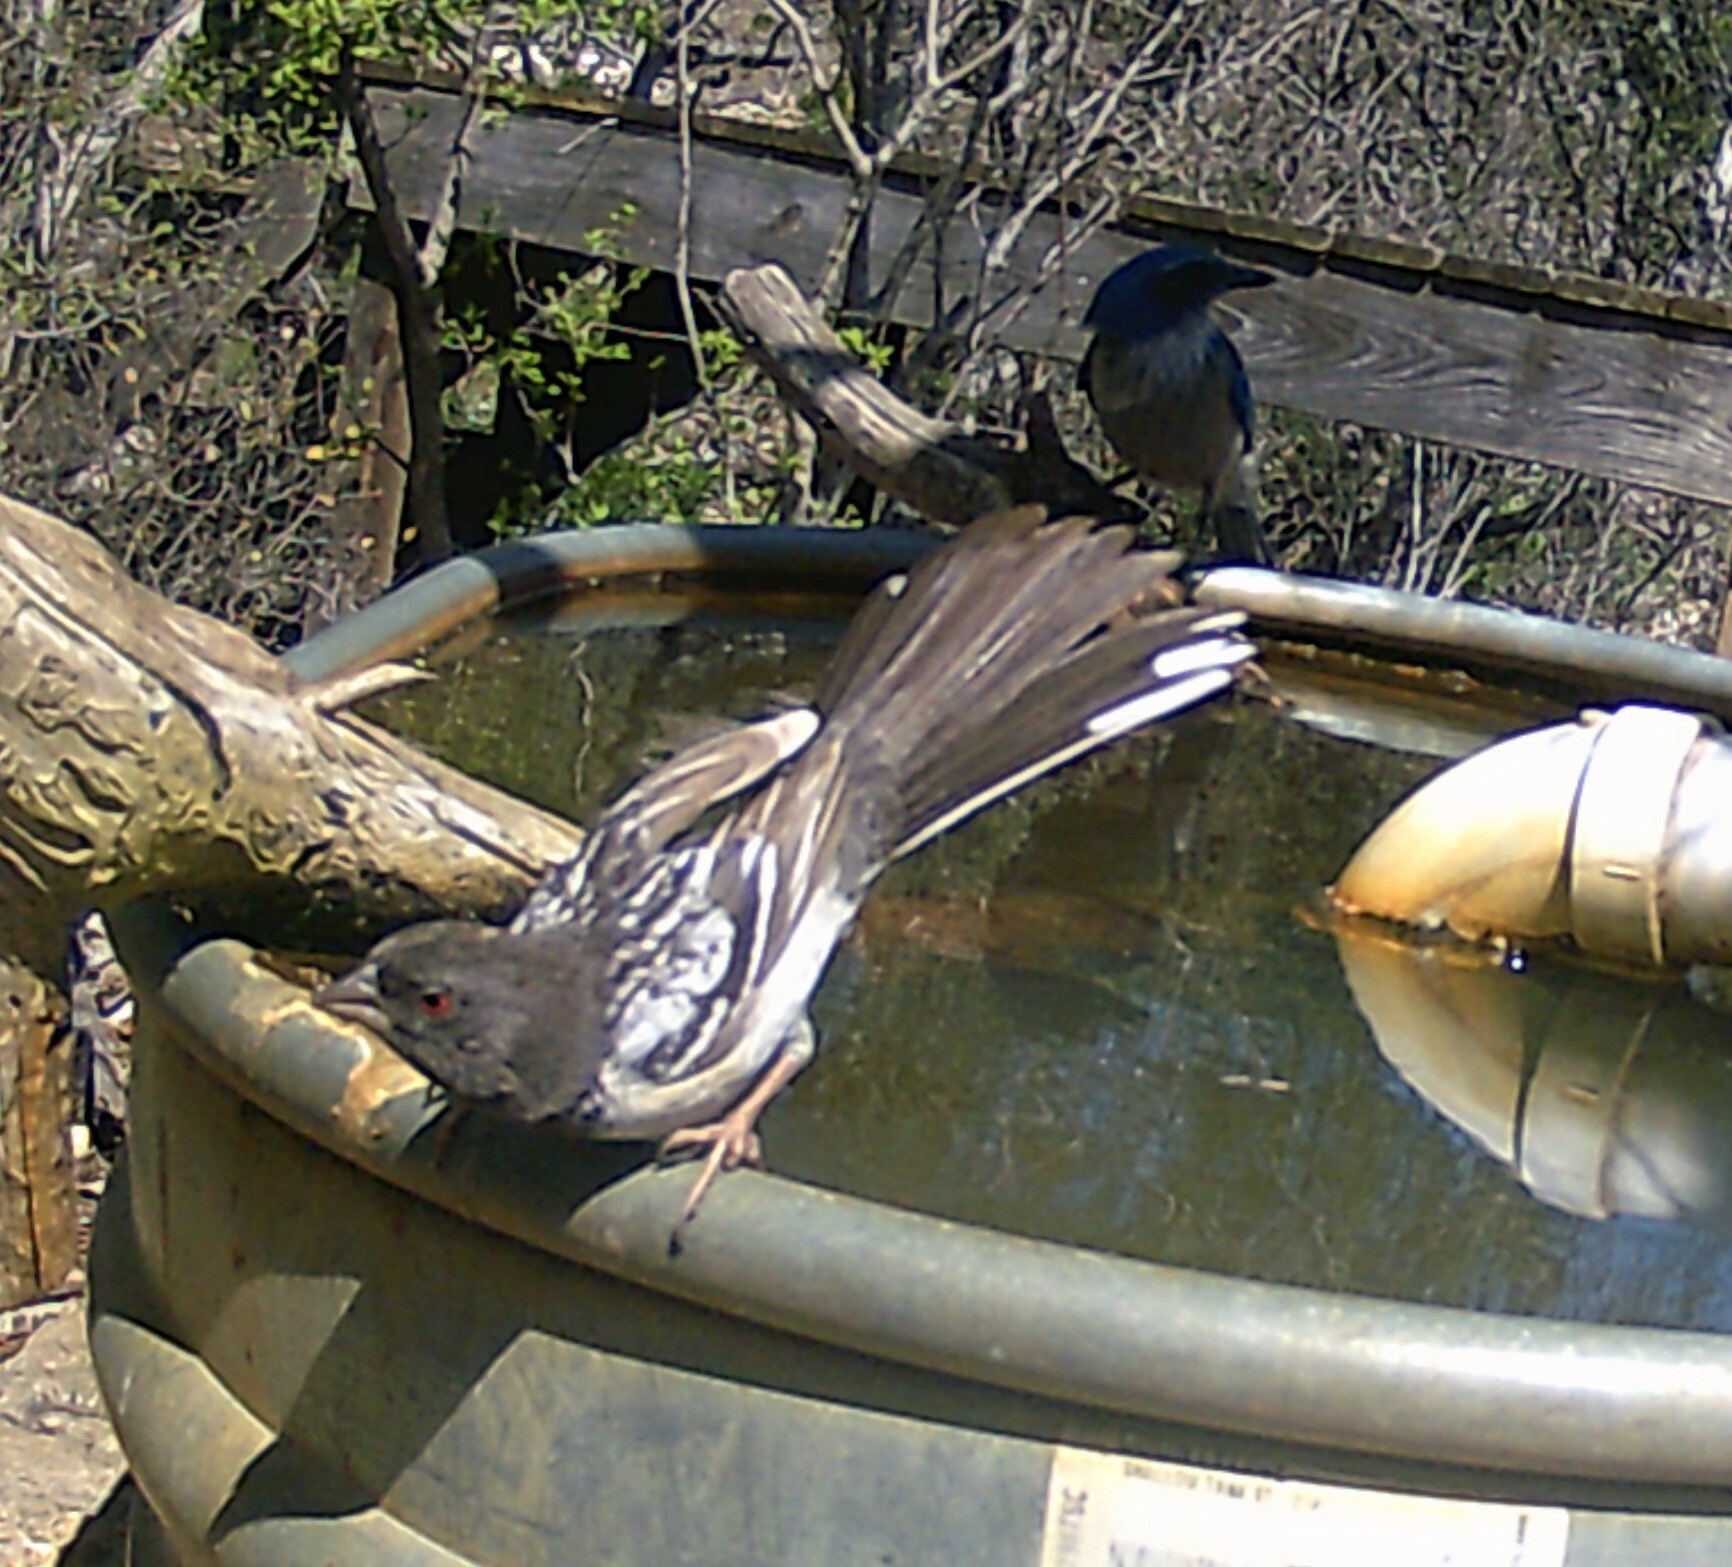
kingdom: Animalia
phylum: Chordata
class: Aves
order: Passeriformes
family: Passerellidae
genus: Pipilo
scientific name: Pipilo maculatus
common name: Spotted towhee
